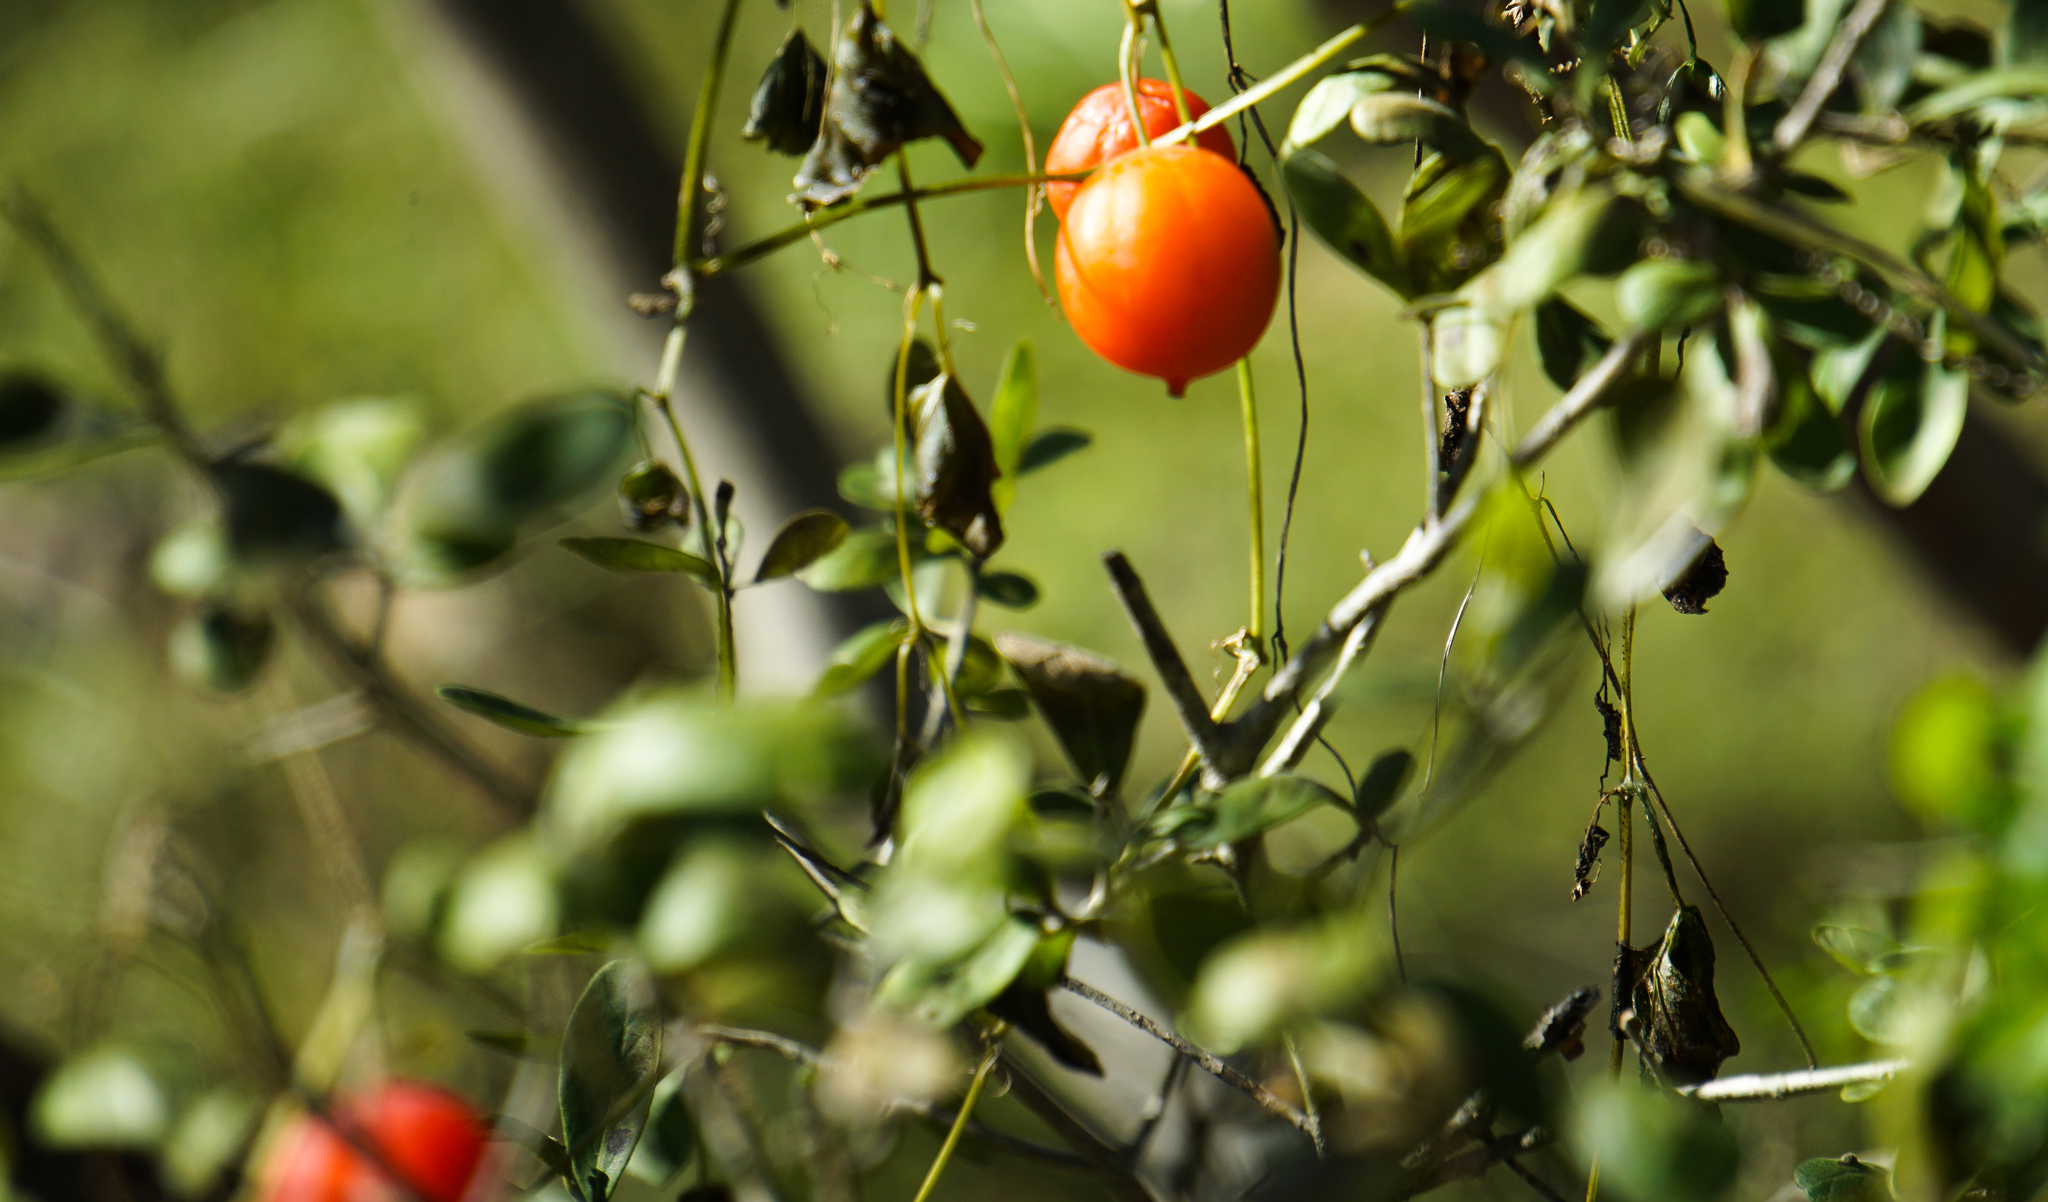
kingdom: Plantae
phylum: Tracheophyta
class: Magnoliopsida
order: Cucurbitales
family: Cucurbitaceae
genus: Ibervillea
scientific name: Ibervillea lindheimeri
